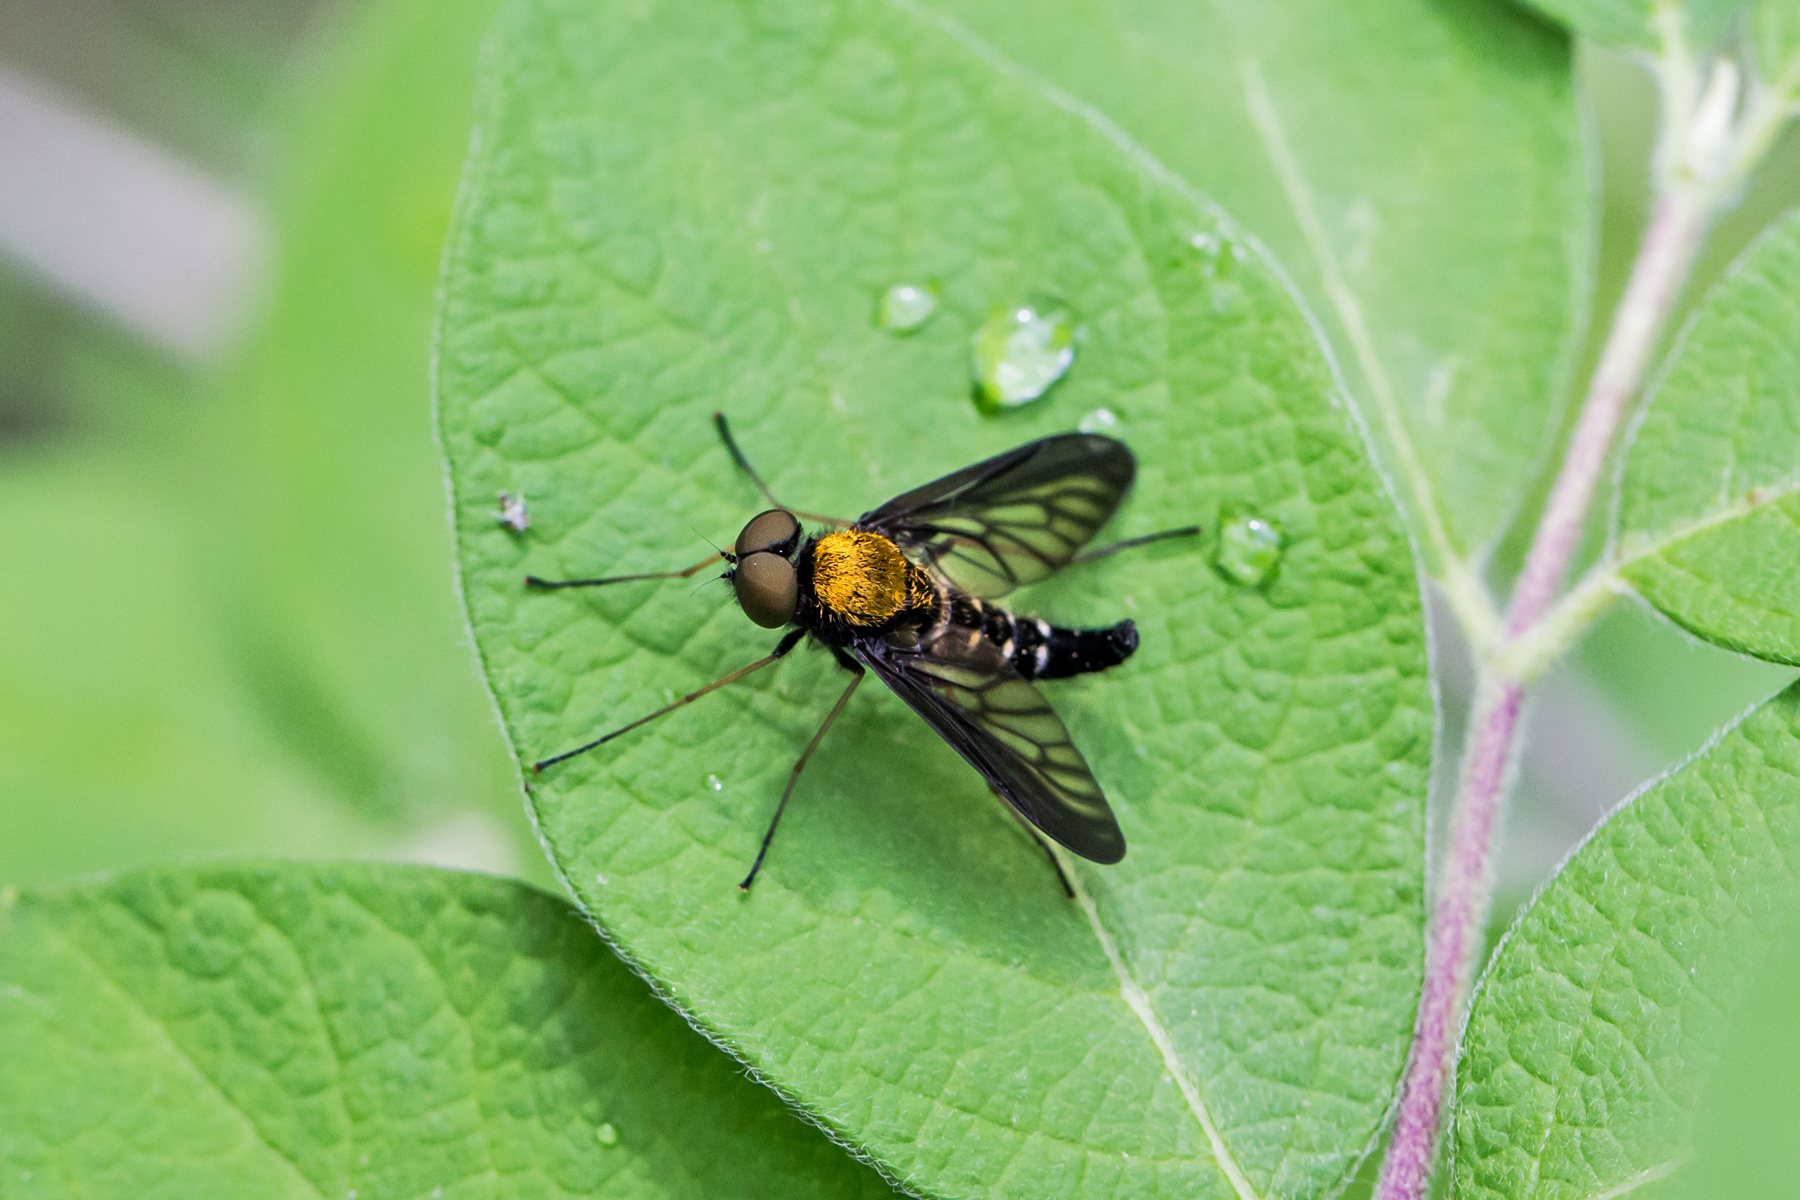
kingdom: Animalia
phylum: Arthropoda
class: Insecta
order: Diptera
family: Rhagionidae
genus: Chrysopilus
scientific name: Chrysopilus thoracicus
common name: Golden-backed snipe fly
